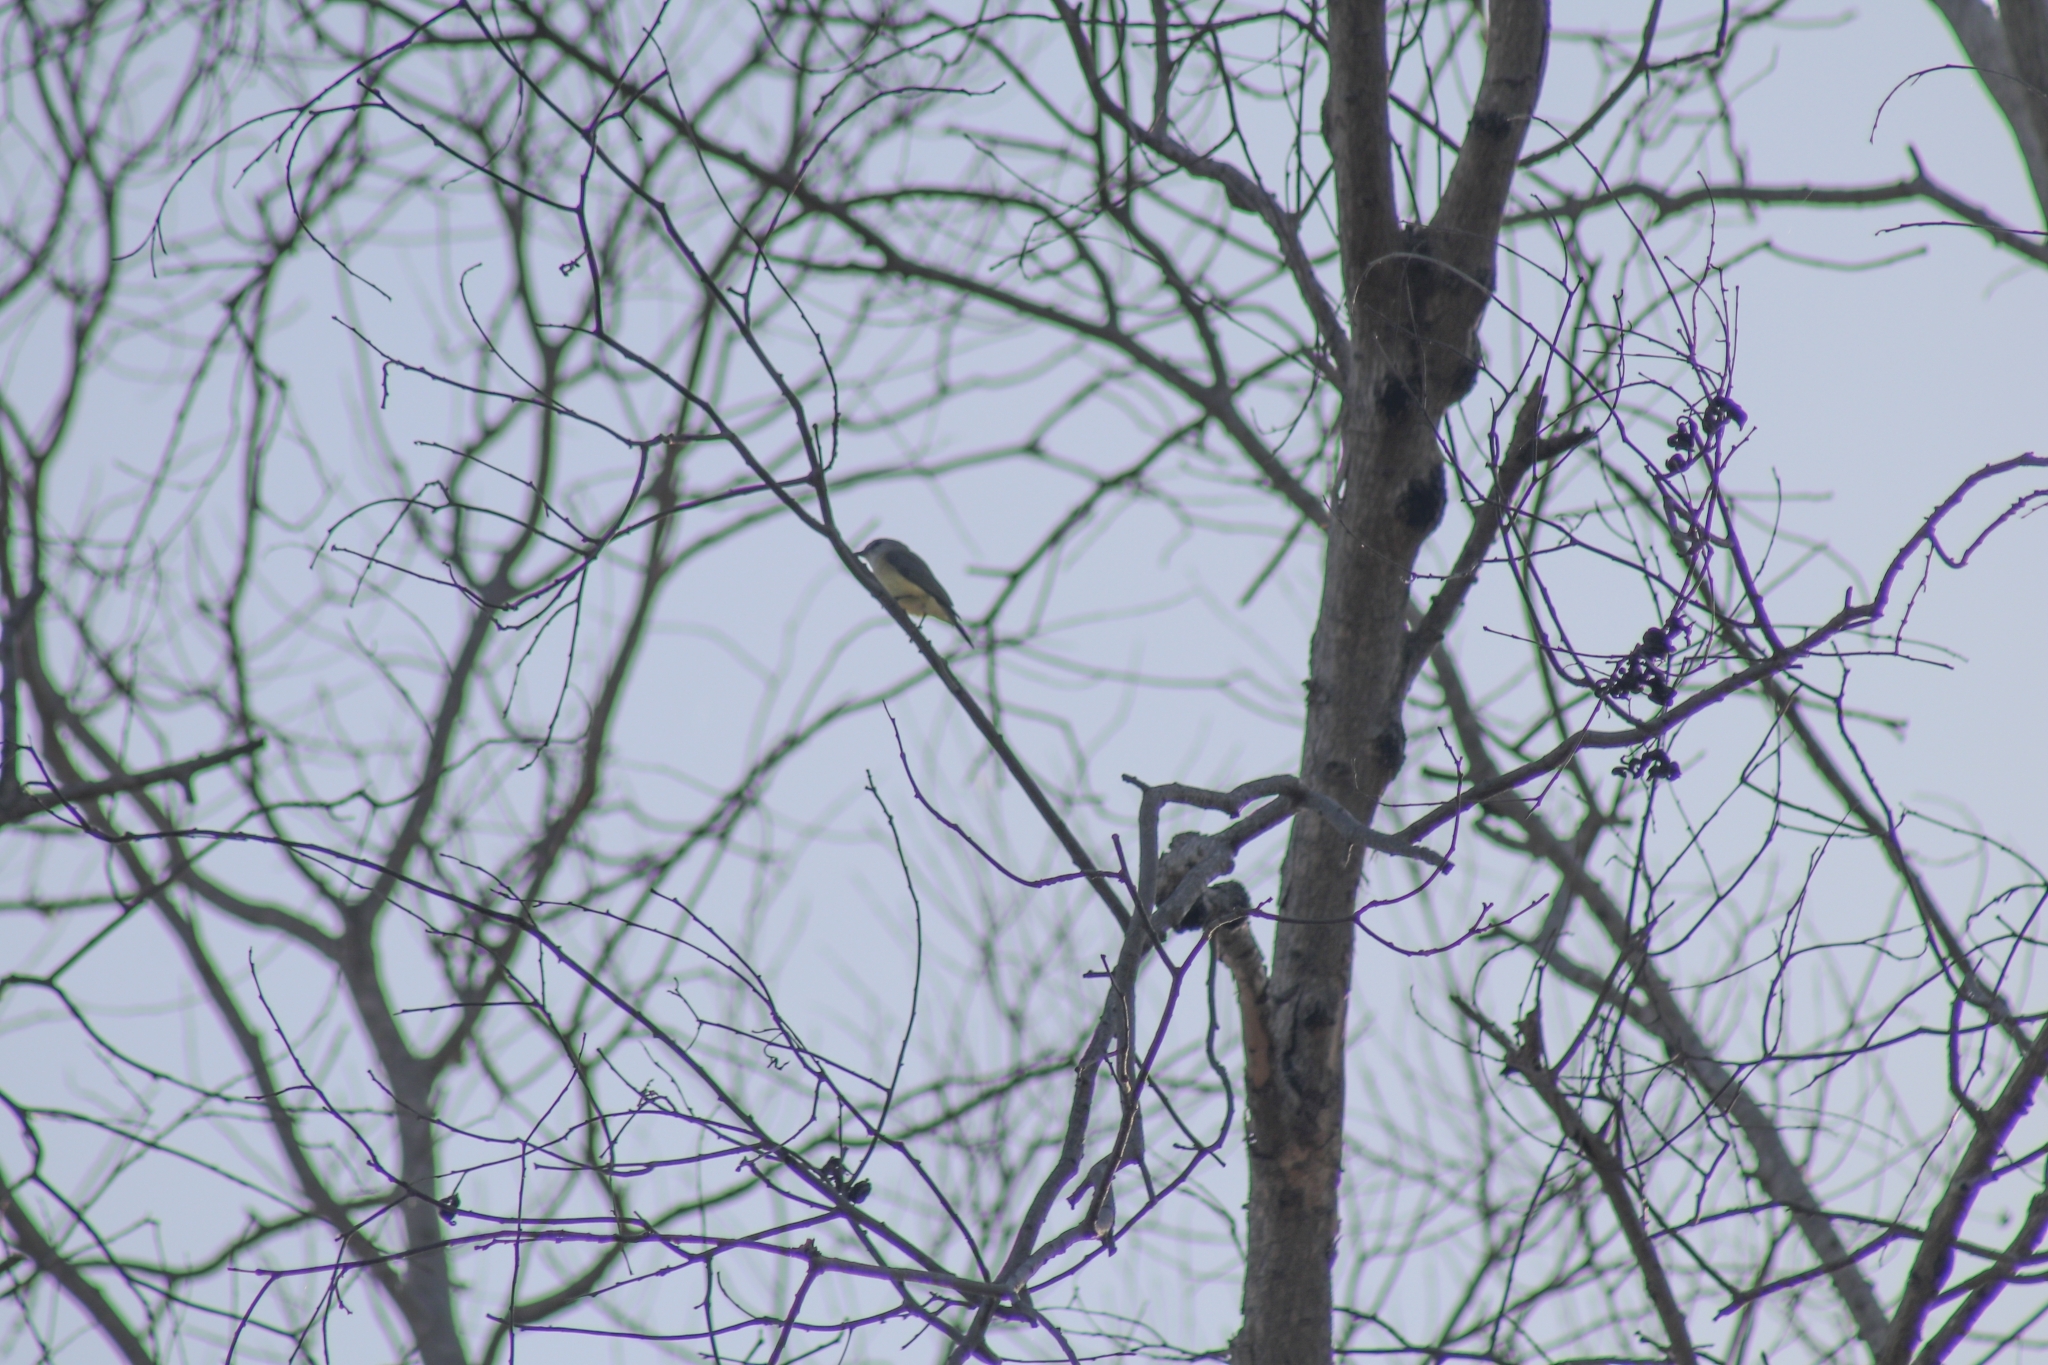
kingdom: Animalia
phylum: Chordata
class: Aves
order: Passeriformes
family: Petroicidae
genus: Microeca
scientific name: Microeca flavigaster
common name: Lemon-bellied flyrobin
